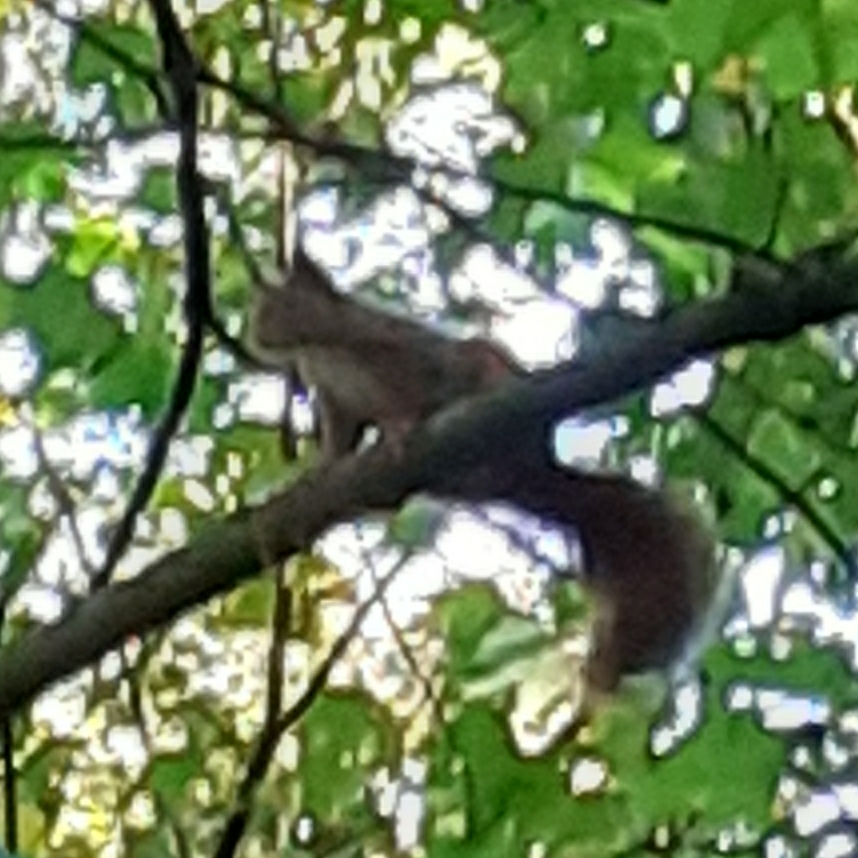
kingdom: Animalia
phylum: Chordata
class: Mammalia
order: Rodentia
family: Sciuridae
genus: Sciurus
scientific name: Sciurus vulgaris
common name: Eurasian red squirrel
